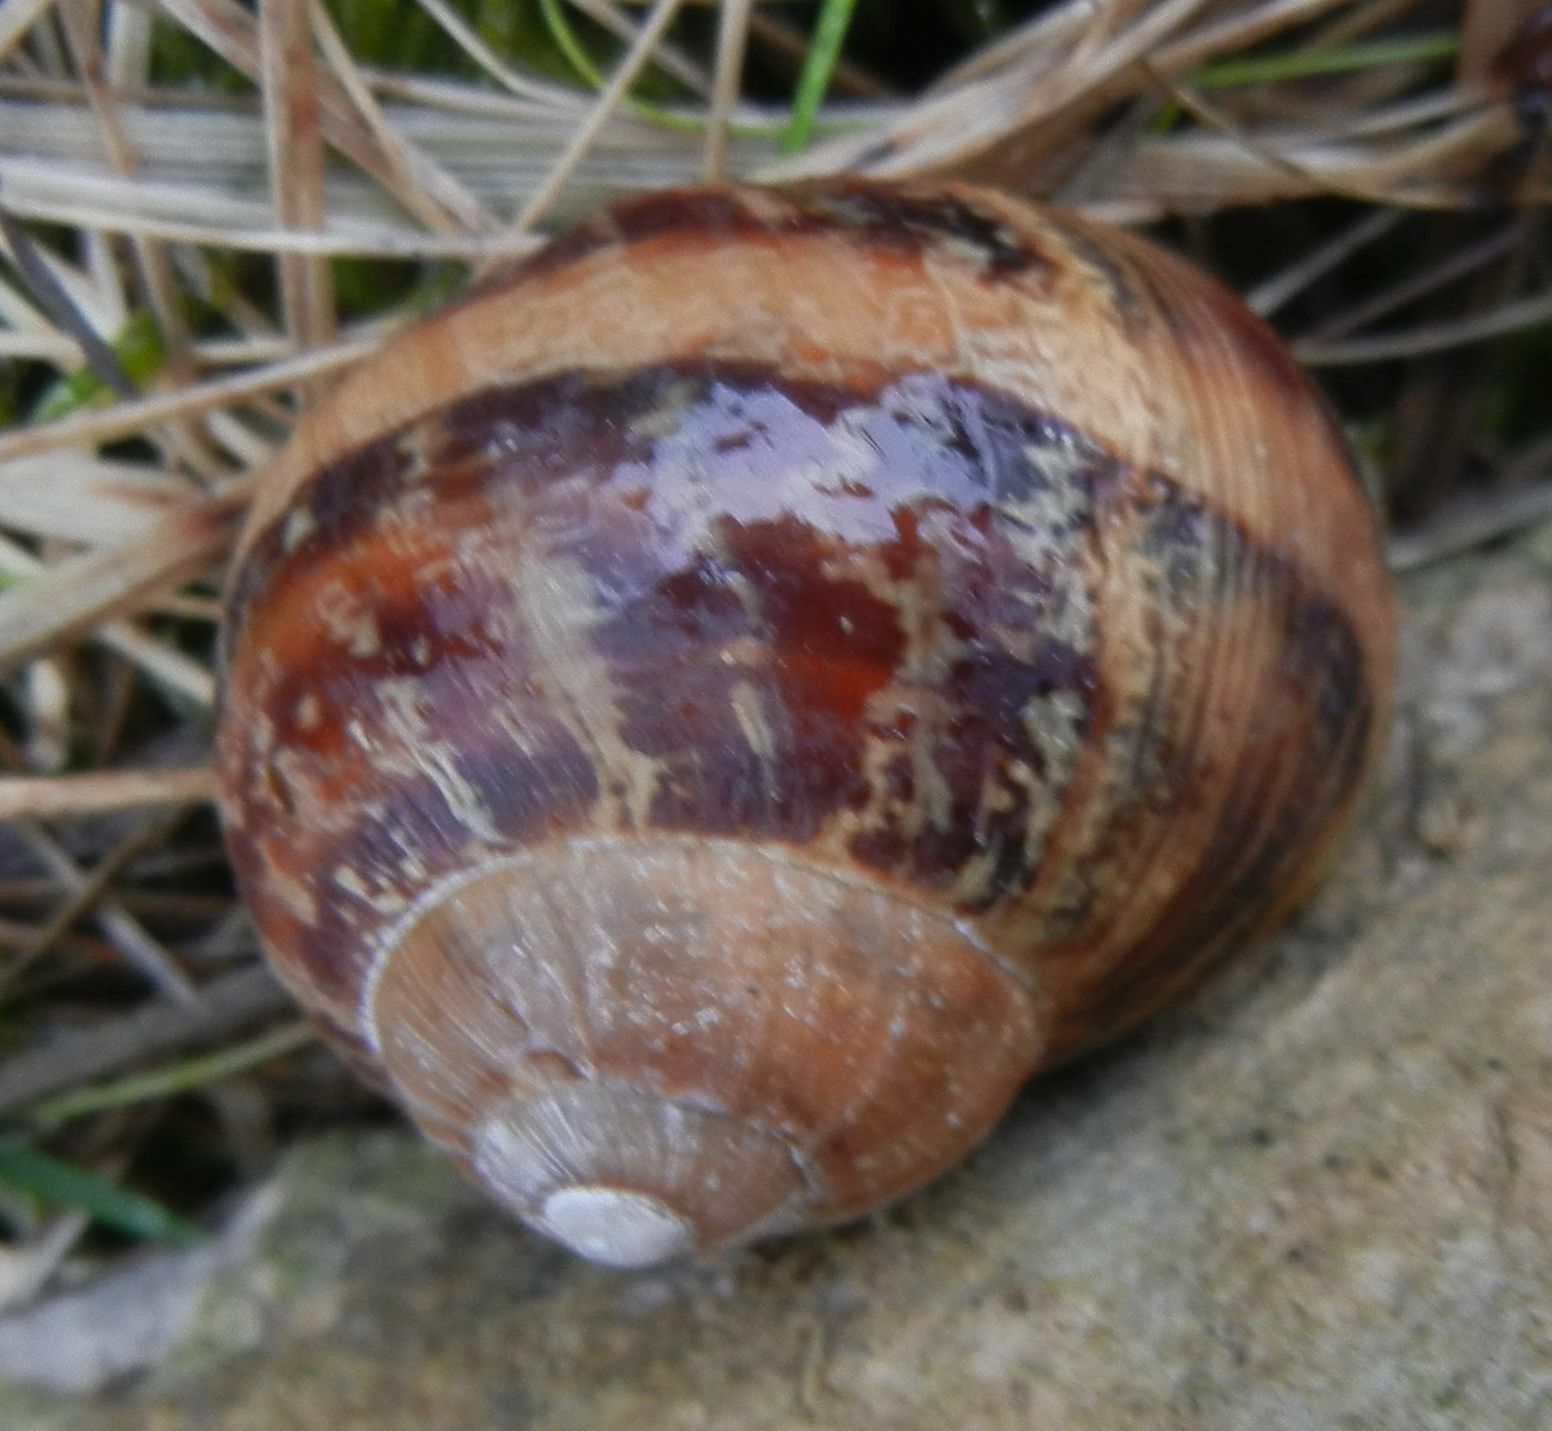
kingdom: Animalia
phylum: Mollusca
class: Gastropoda
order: Stylommatophora
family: Helicidae
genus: Cornu
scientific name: Cornu aspersum
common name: Brown garden snail
